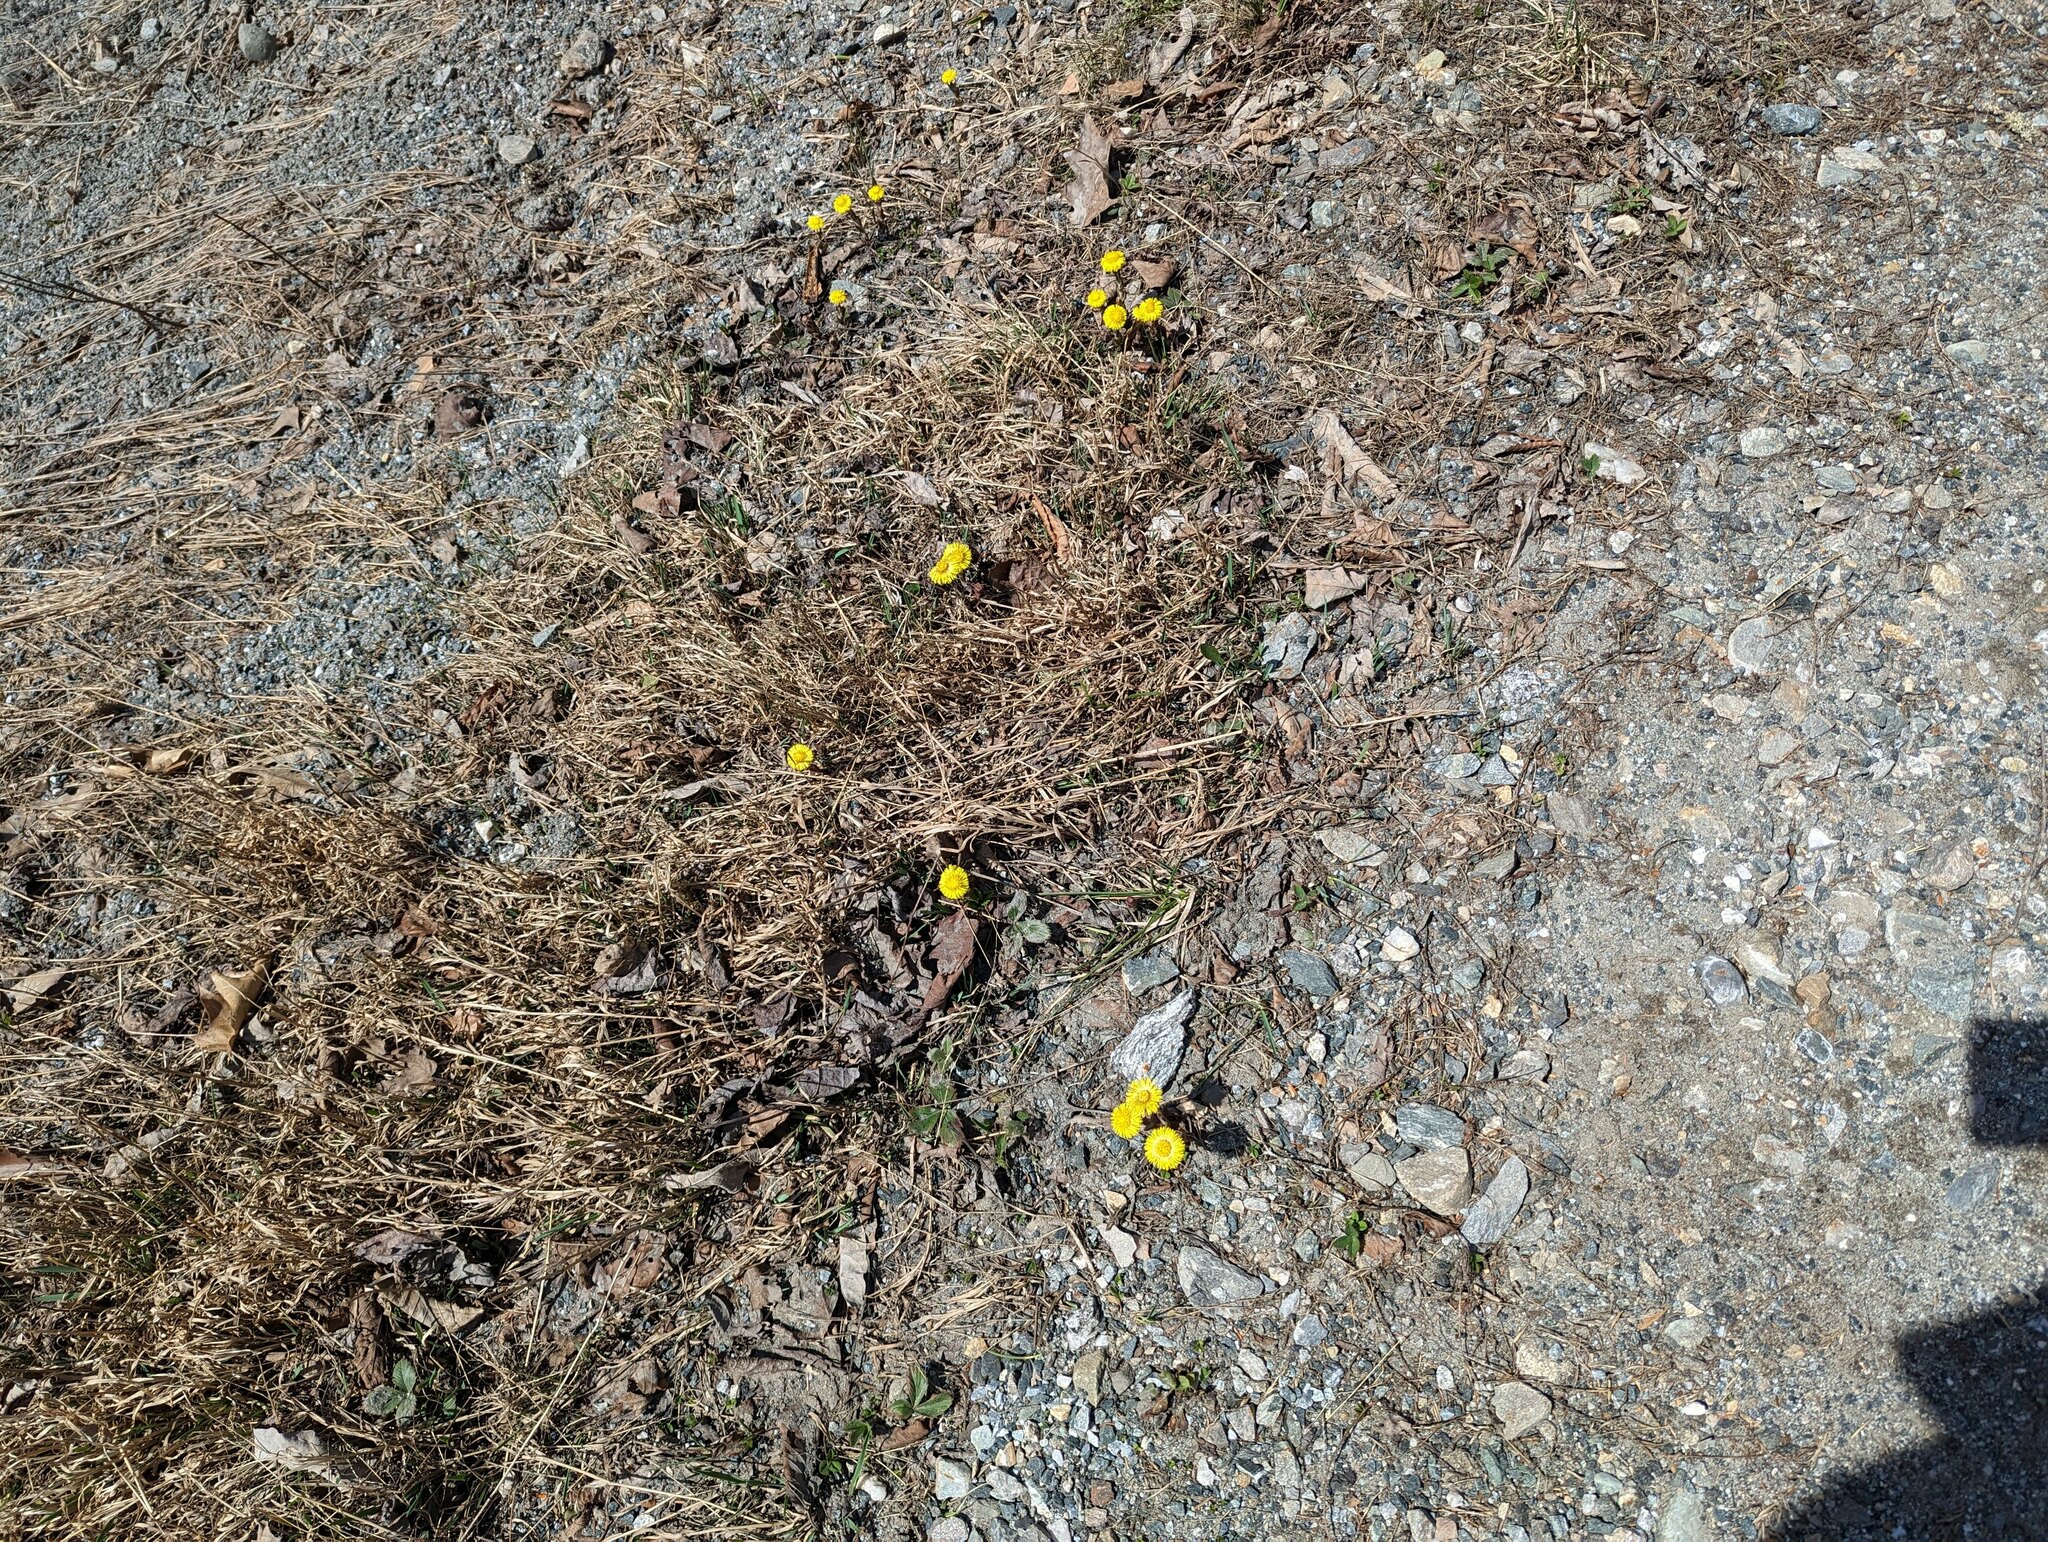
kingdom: Plantae
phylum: Tracheophyta
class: Magnoliopsida
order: Asterales
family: Asteraceae
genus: Tussilago
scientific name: Tussilago farfara
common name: Coltsfoot
